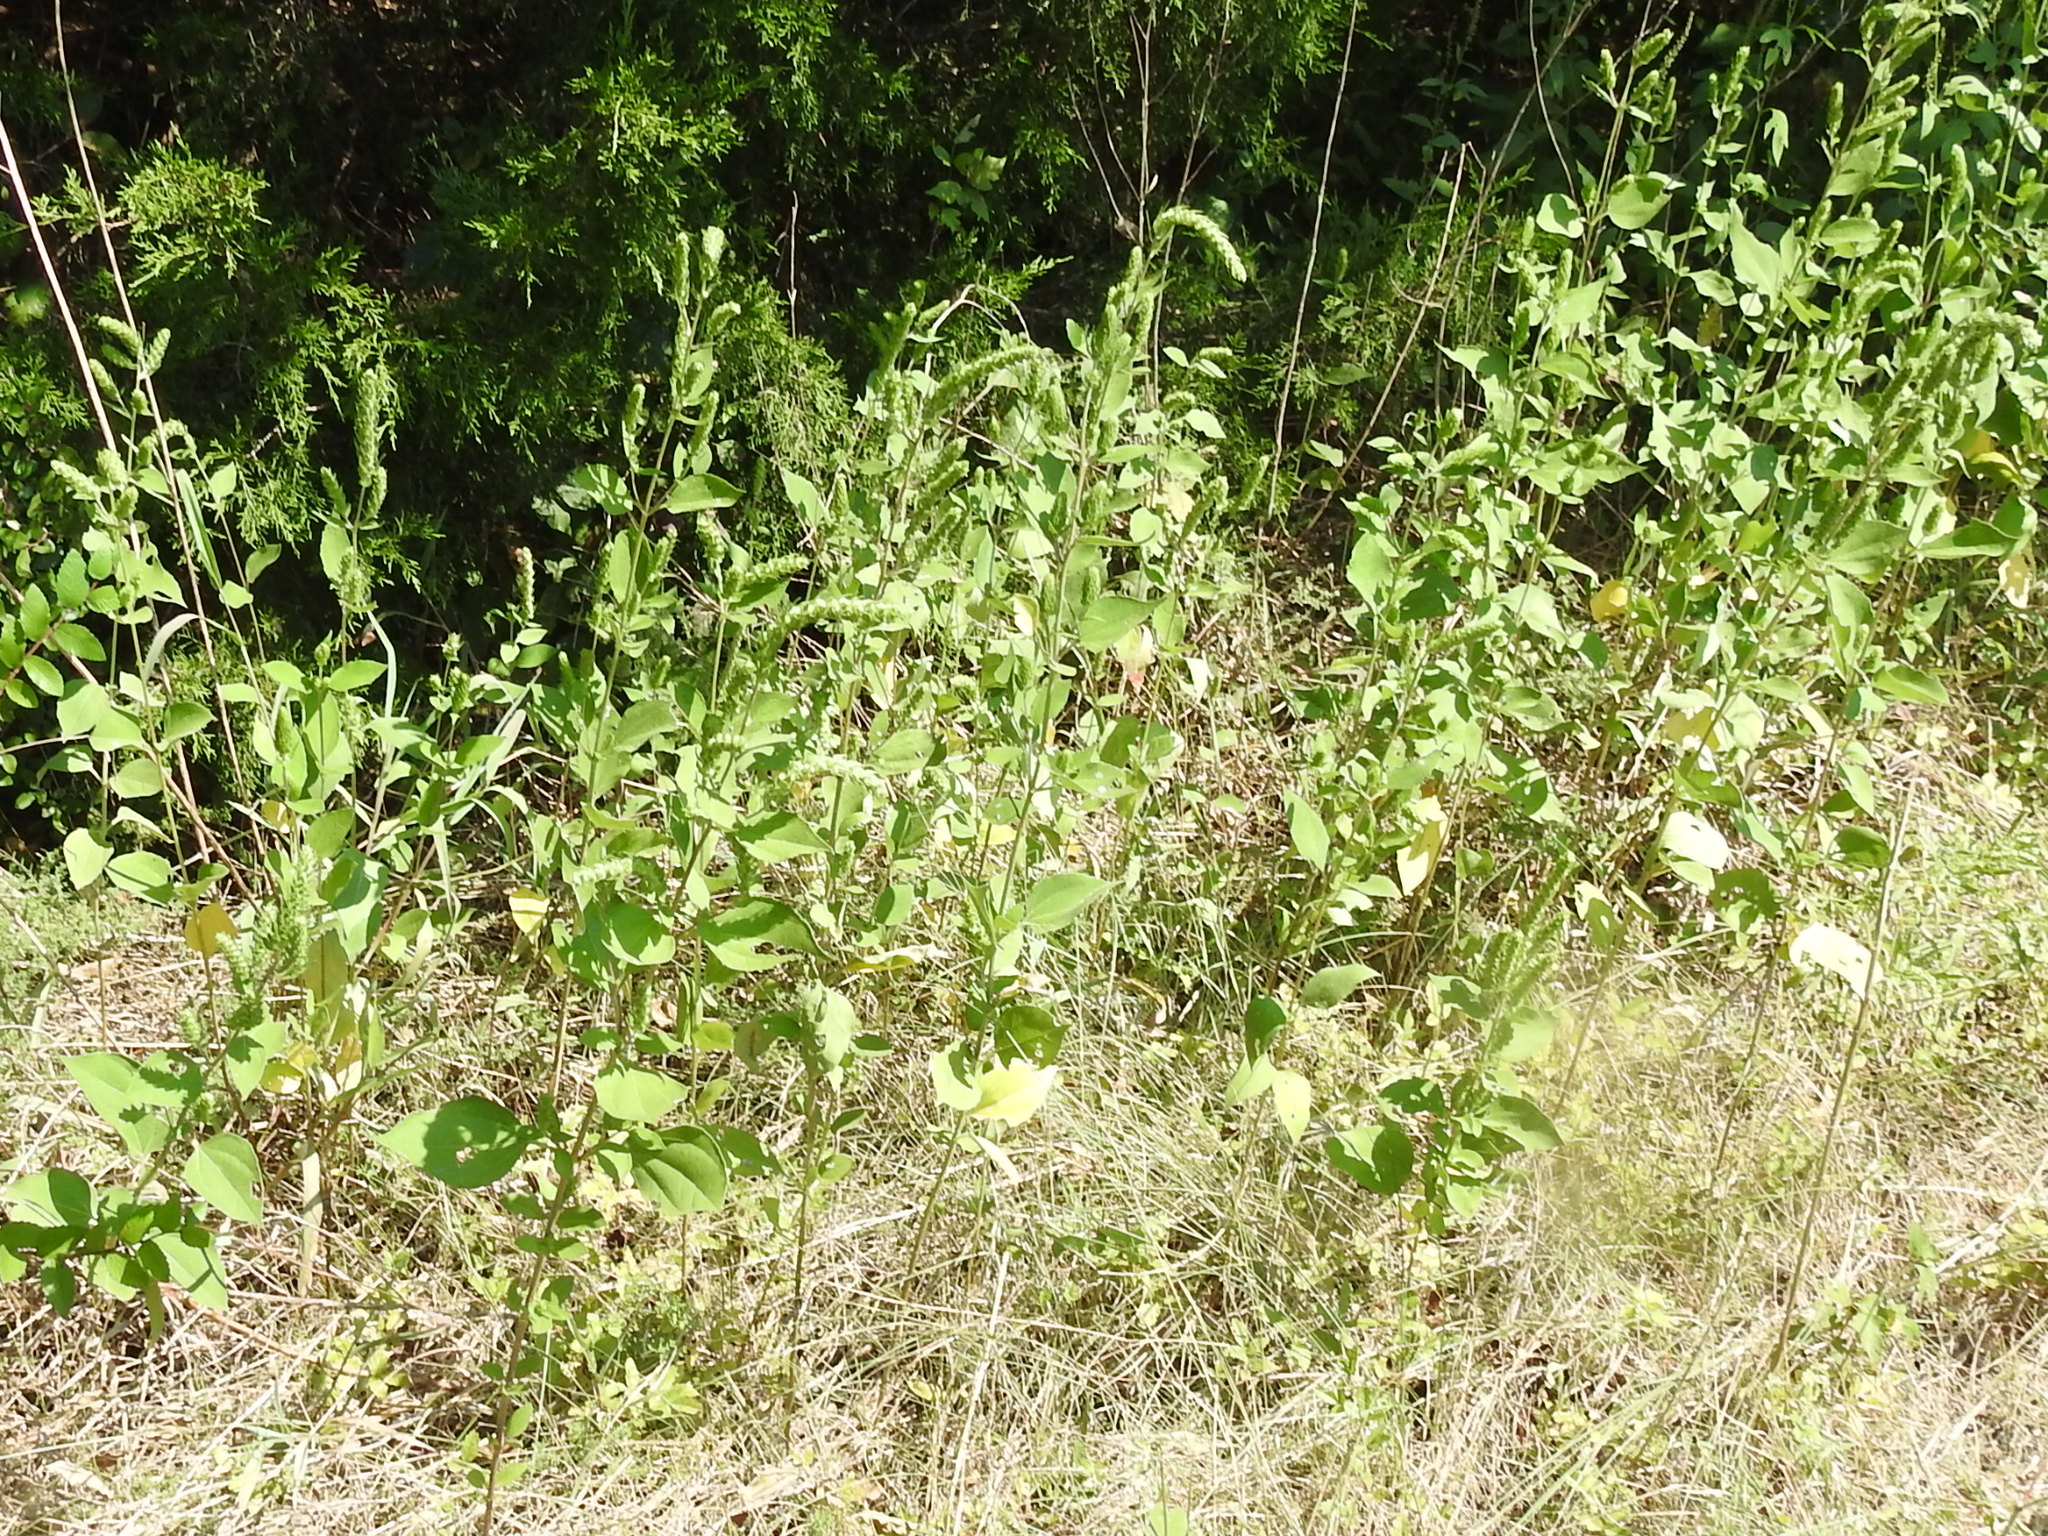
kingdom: Plantae
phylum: Tracheophyta
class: Magnoliopsida
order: Asterales
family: Asteraceae
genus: Iva
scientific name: Iva annua
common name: Marsh-elder
